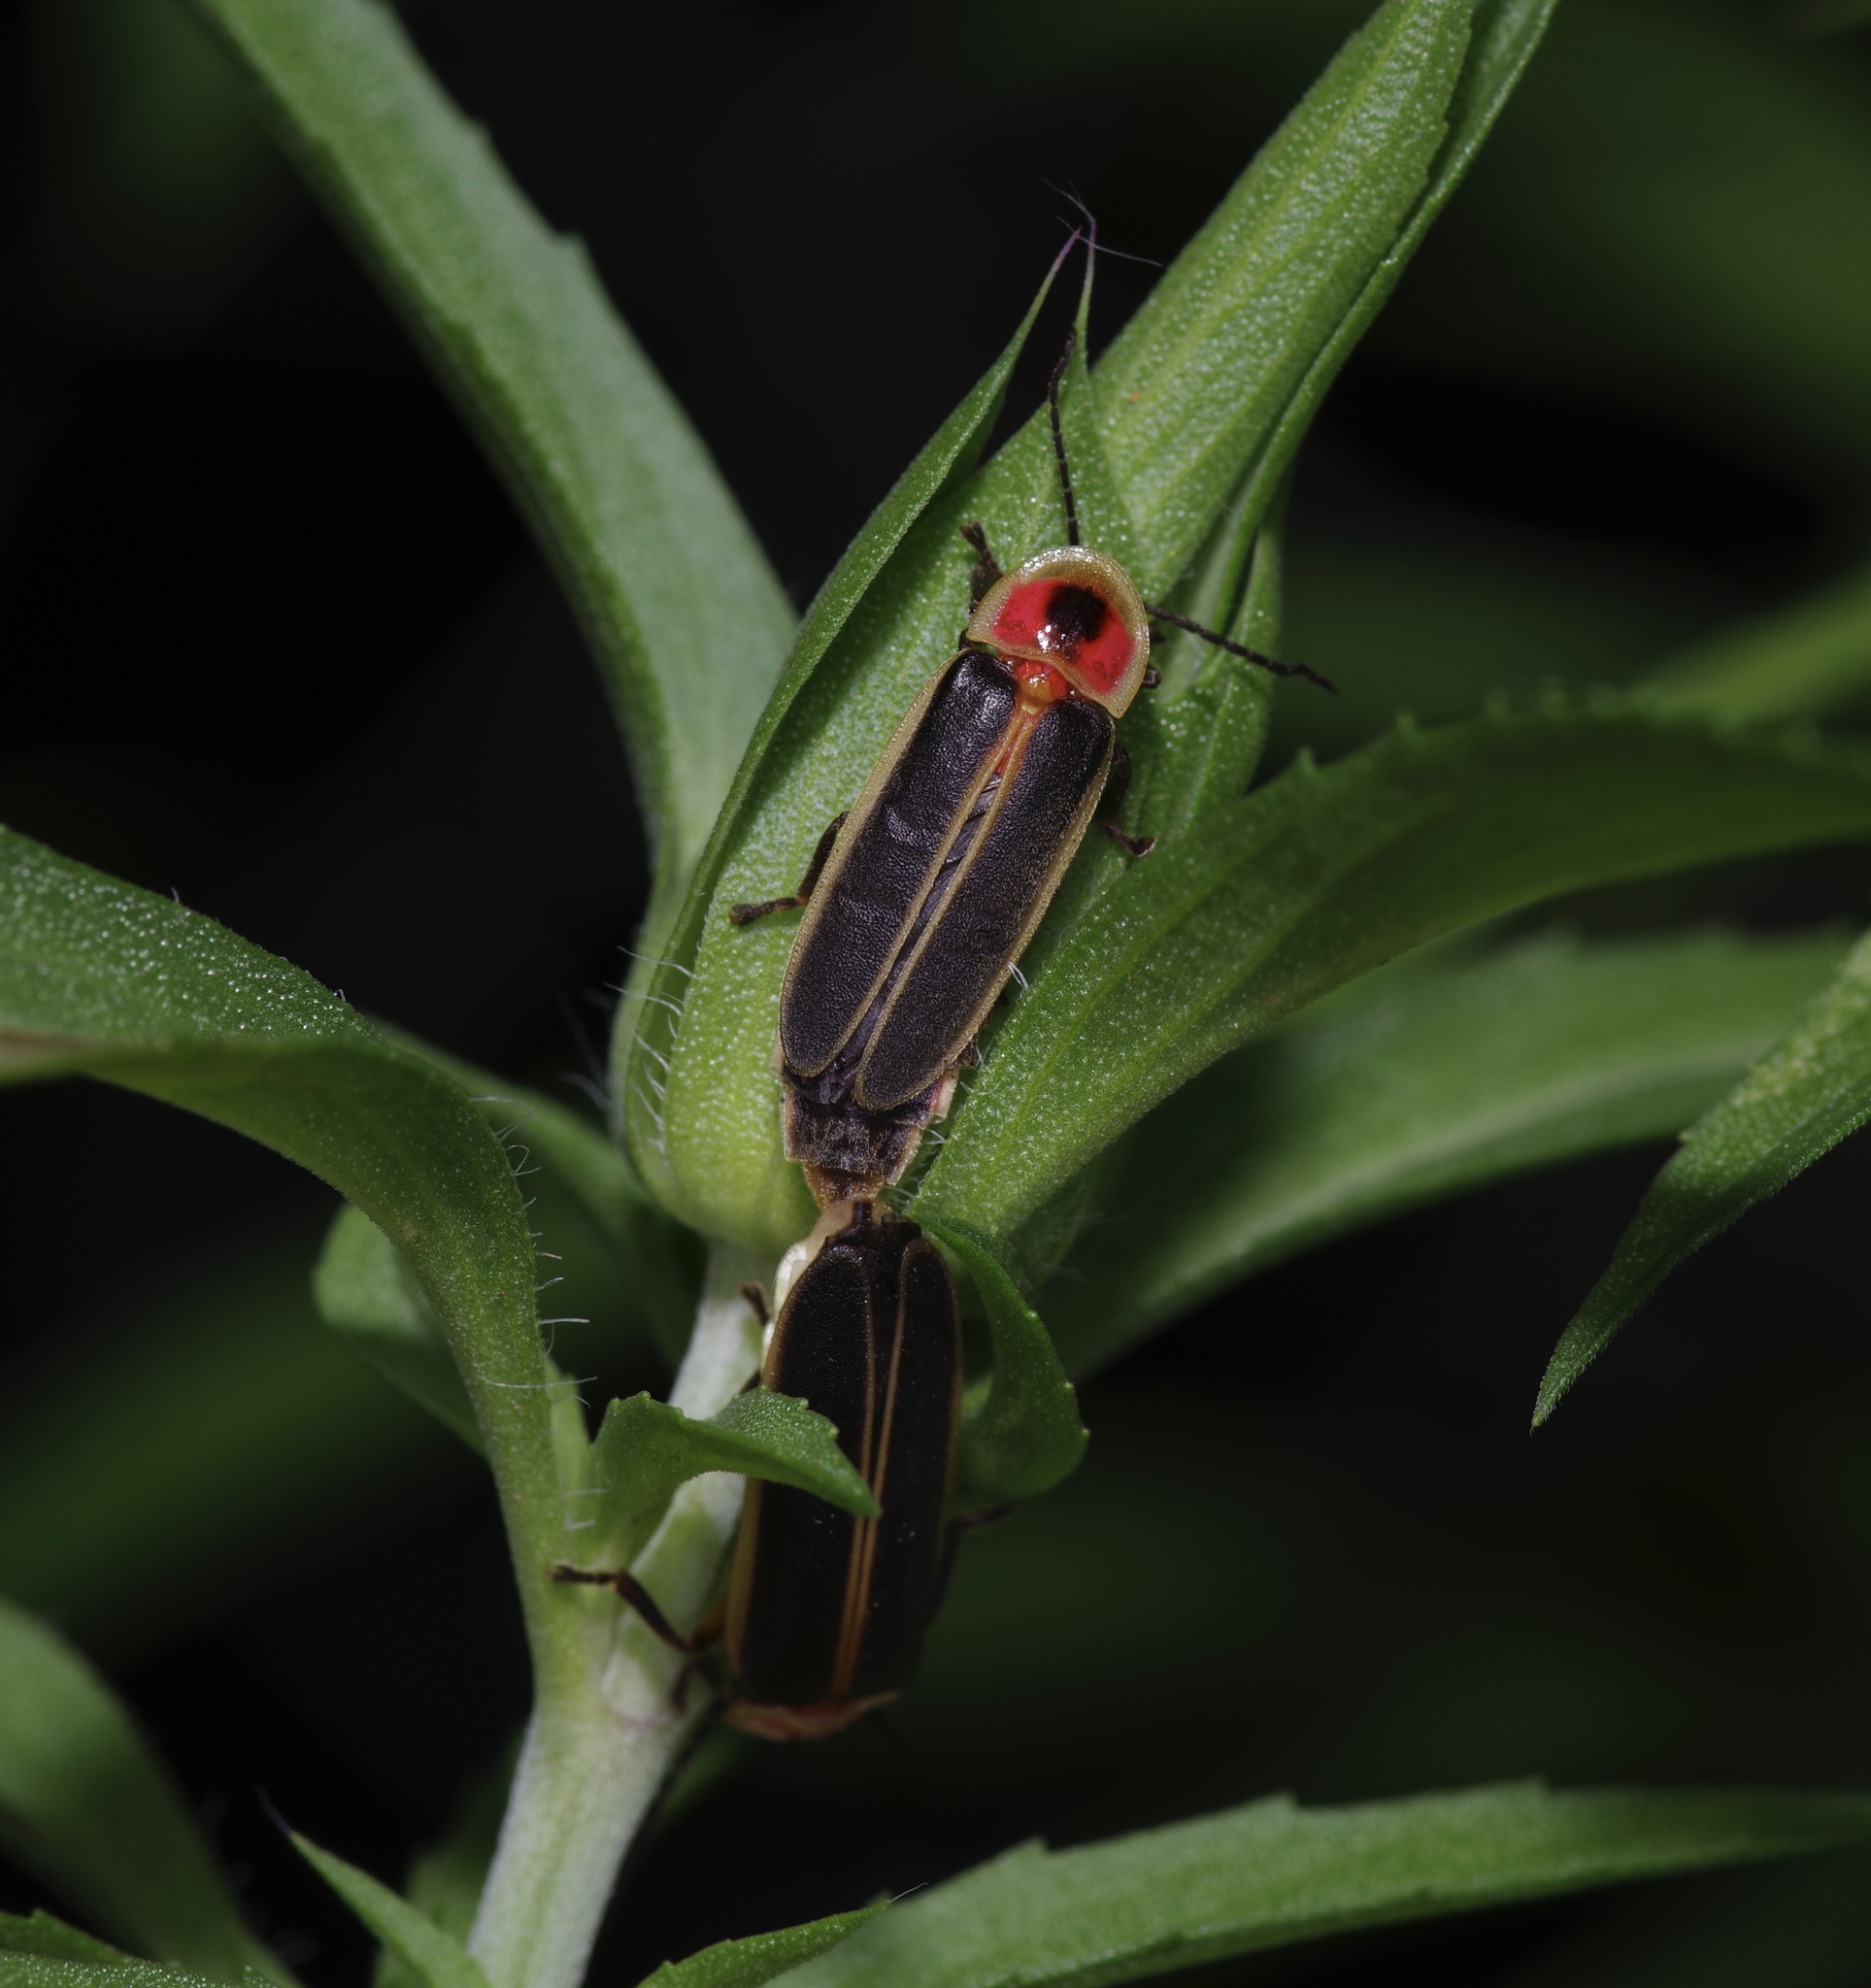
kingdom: Animalia
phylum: Arthropoda
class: Insecta
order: Coleoptera
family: Lampyridae
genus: Photinus
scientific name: Photinus pyralis
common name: Big dipper firefly
